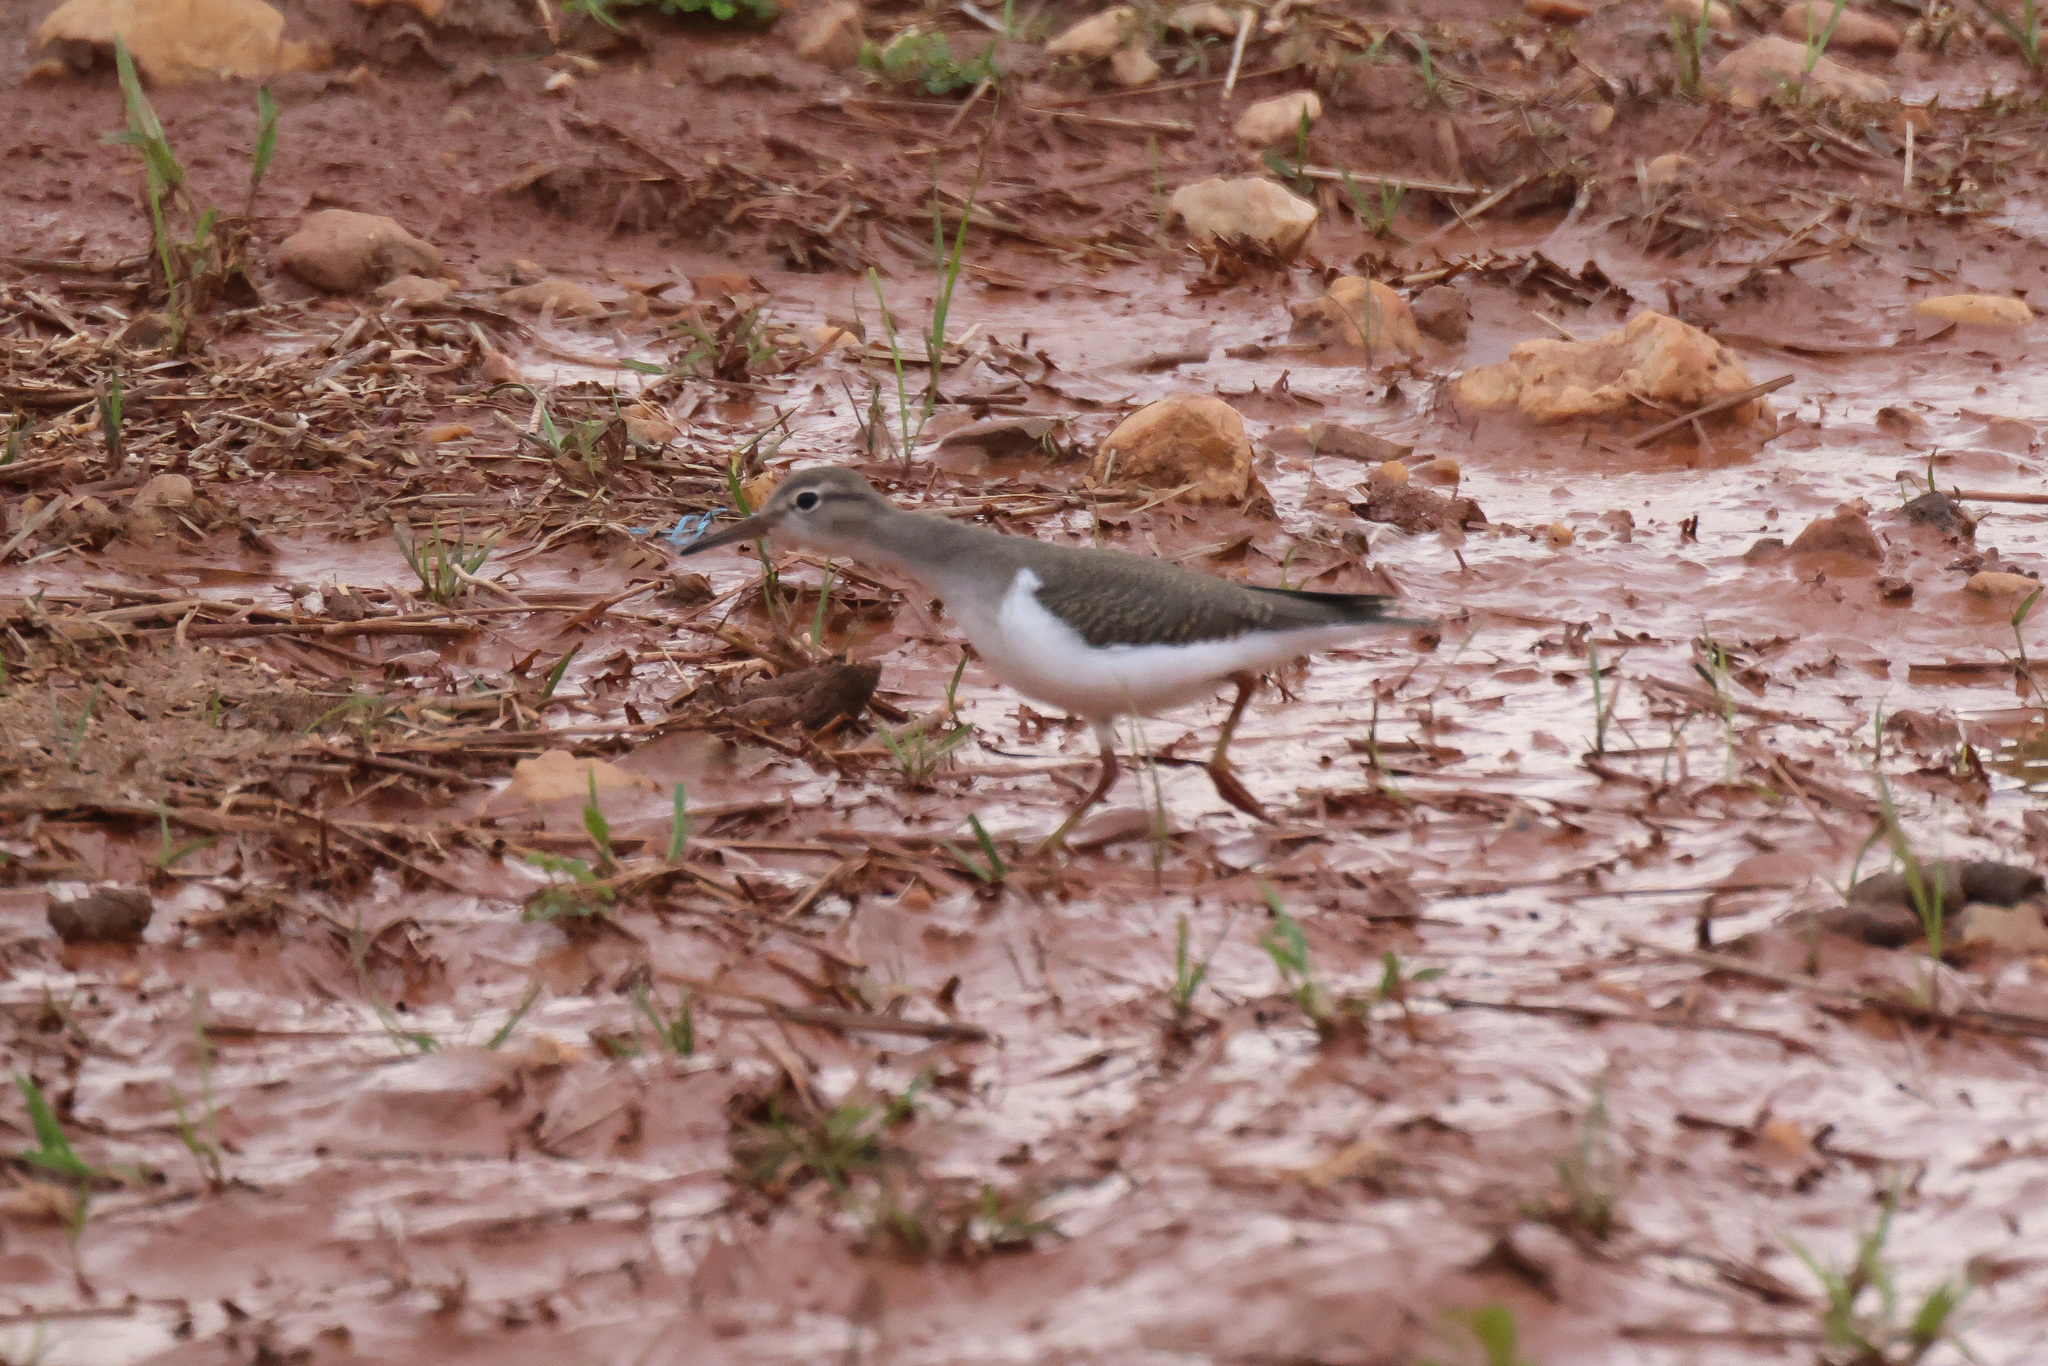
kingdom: Animalia
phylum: Chordata
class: Aves
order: Charadriiformes
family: Scolopacidae
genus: Actitis
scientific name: Actitis macularius
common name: Spotted sandpiper
